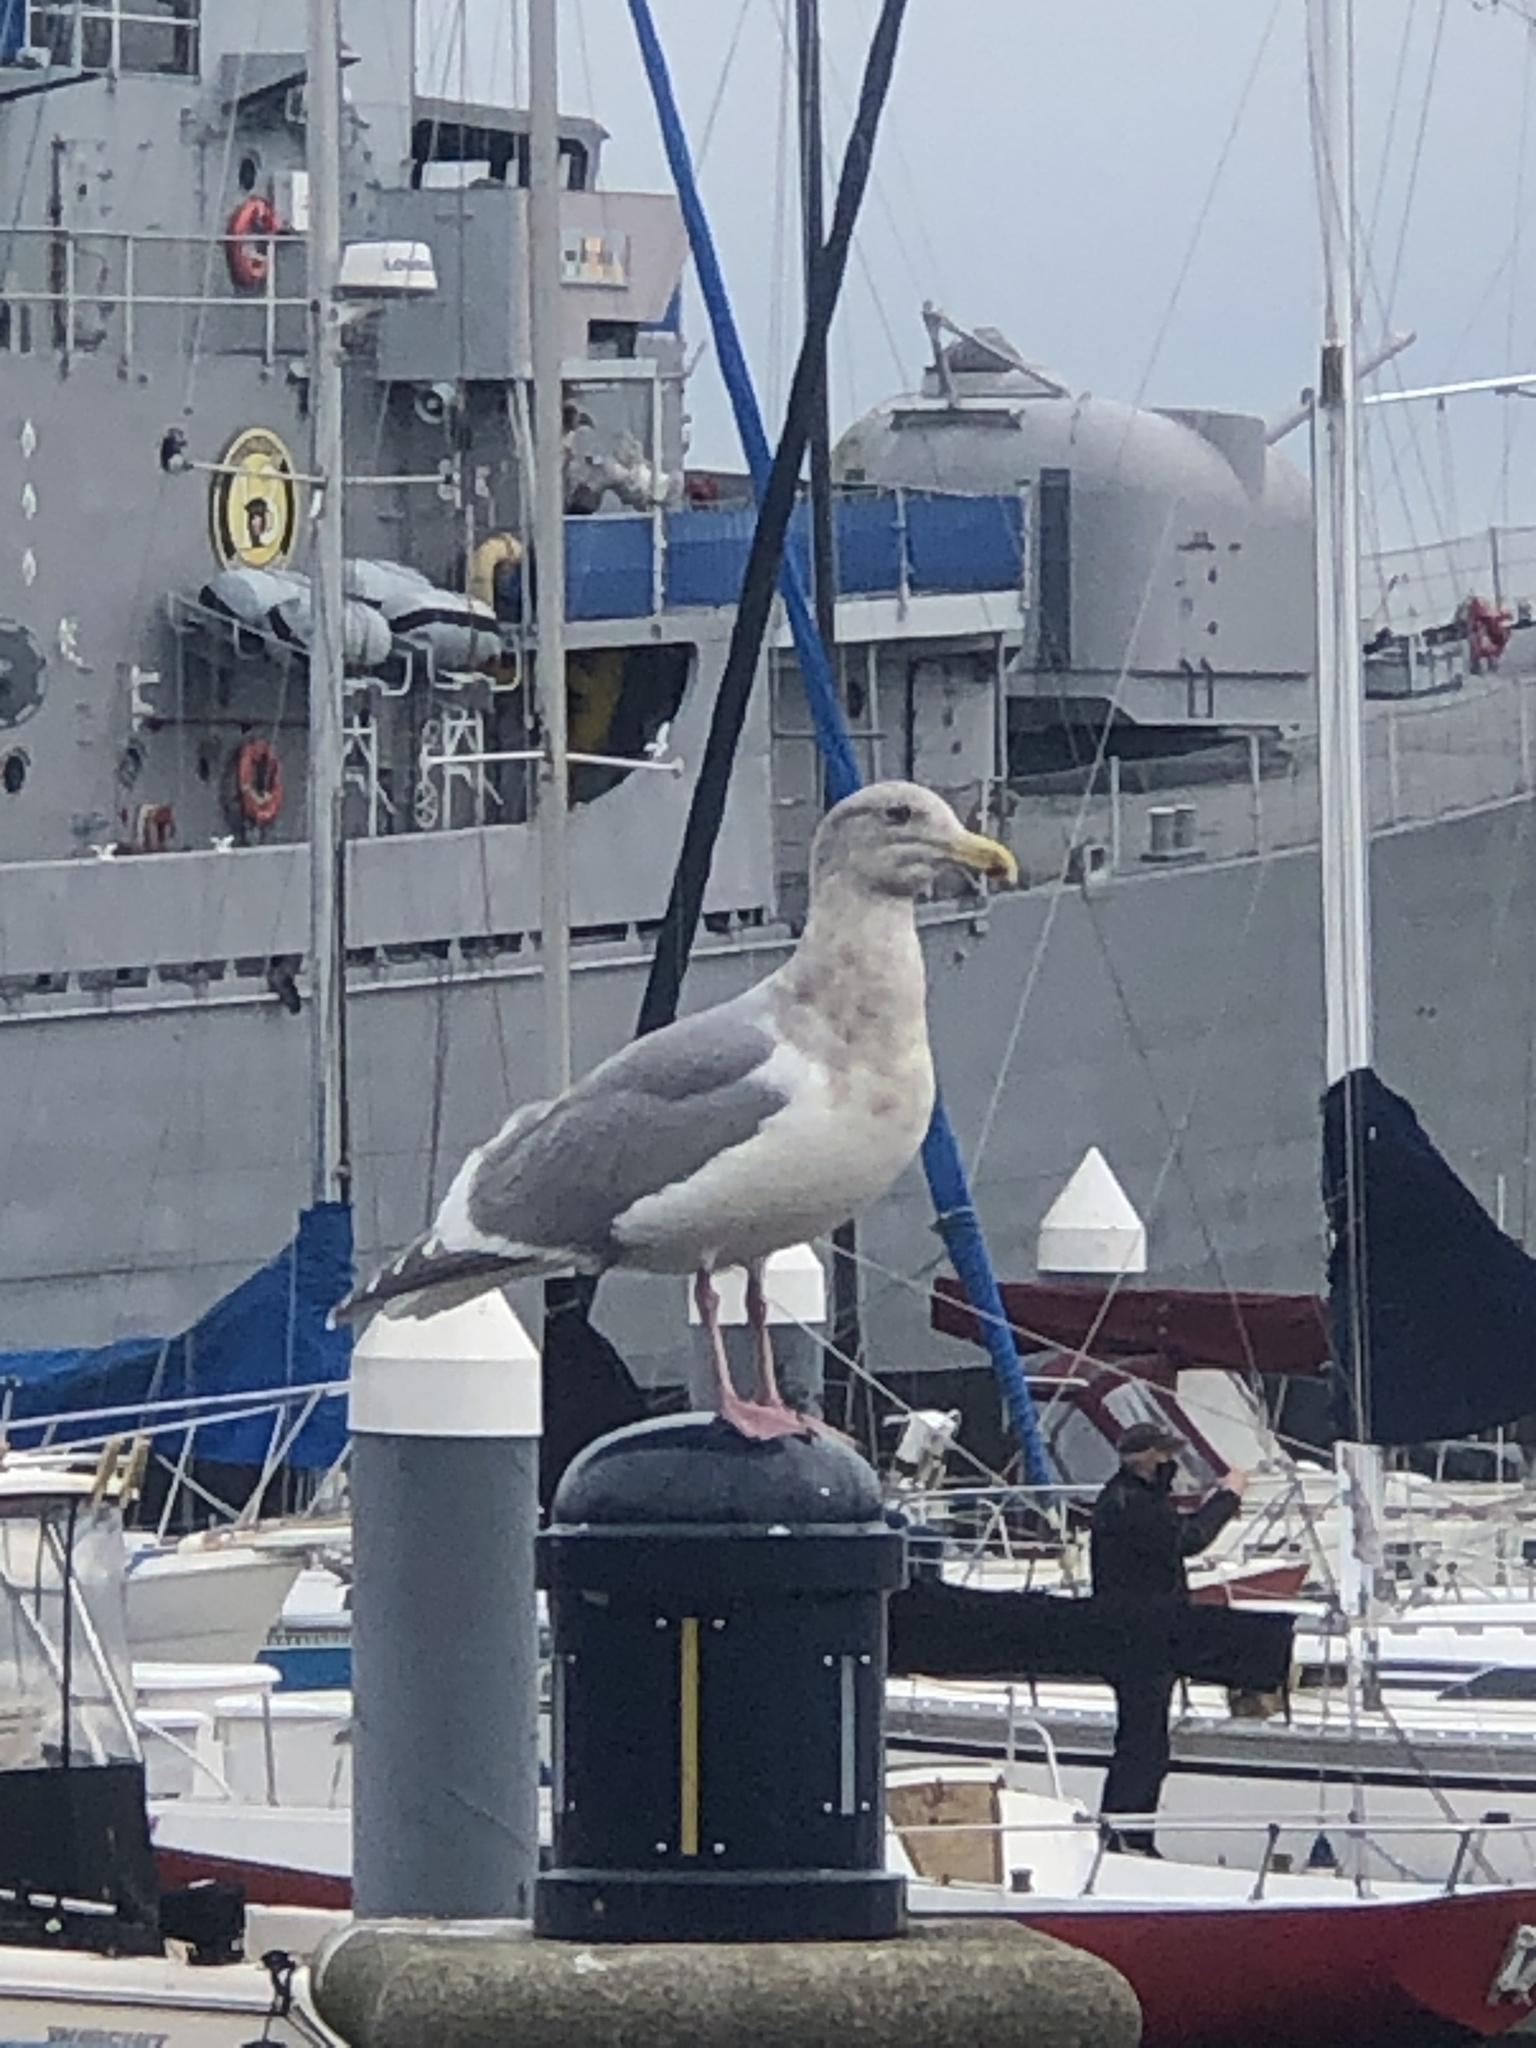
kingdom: Animalia
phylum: Chordata
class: Aves
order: Charadriiformes
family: Laridae
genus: Larus
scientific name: Larus
